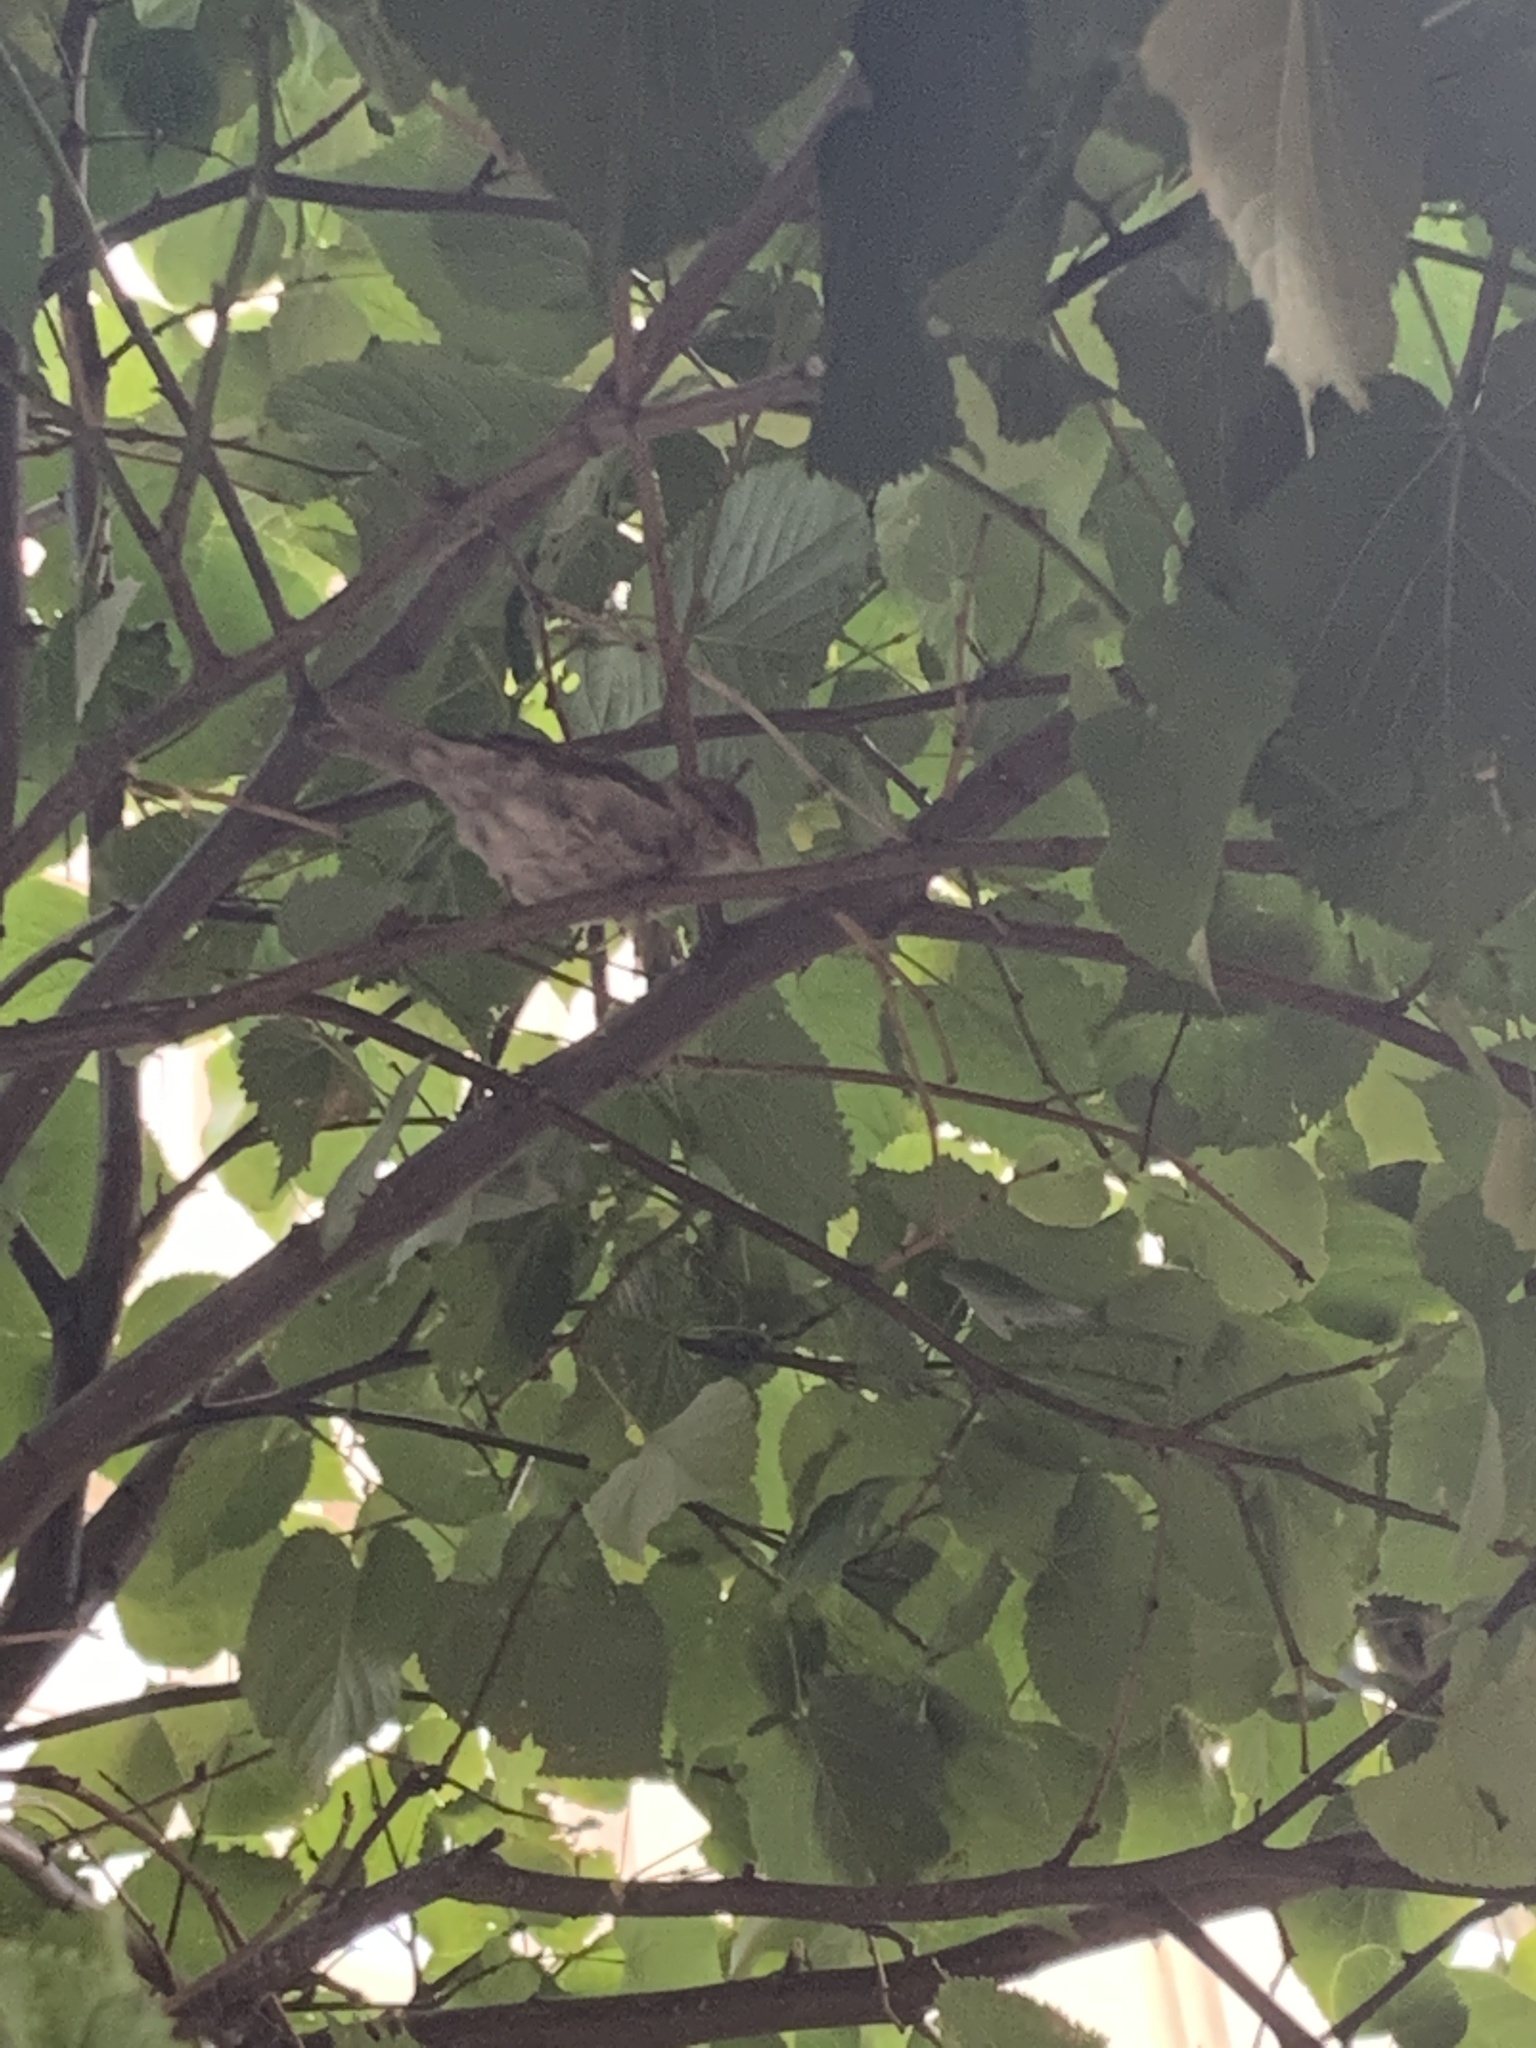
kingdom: Animalia
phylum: Chordata
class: Aves
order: Passeriformes
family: Passeridae
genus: Passer
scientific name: Passer domesticus
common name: House sparrow
